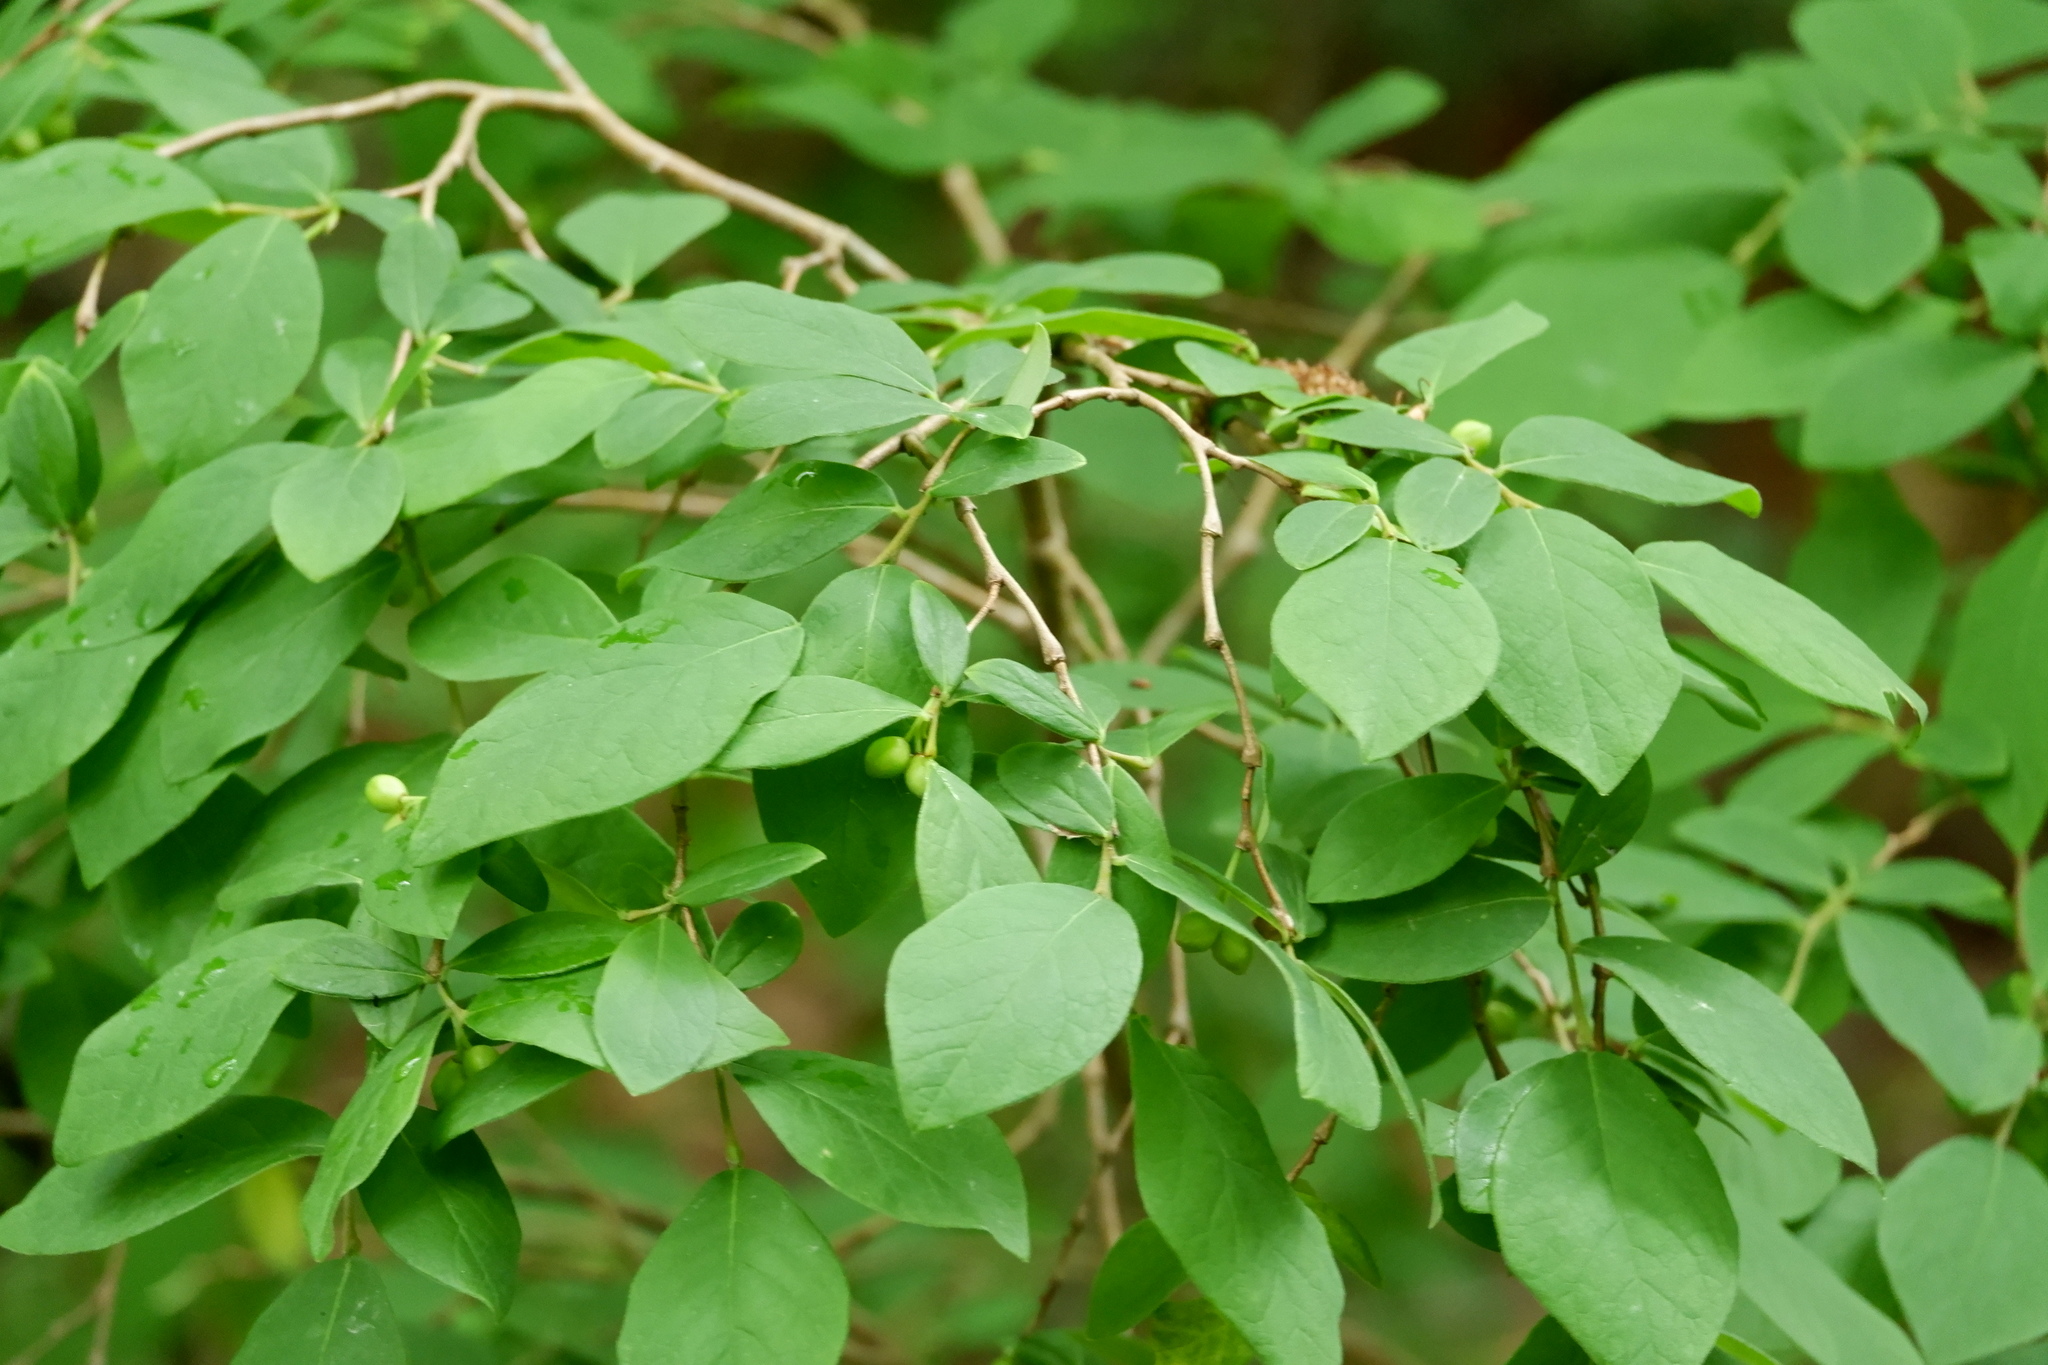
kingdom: Plantae
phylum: Tracheophyta
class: Magnoliopsida
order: Malvales
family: Thymelaeaceae
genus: Dirca
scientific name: Dirca palustris
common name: Leatherwood
